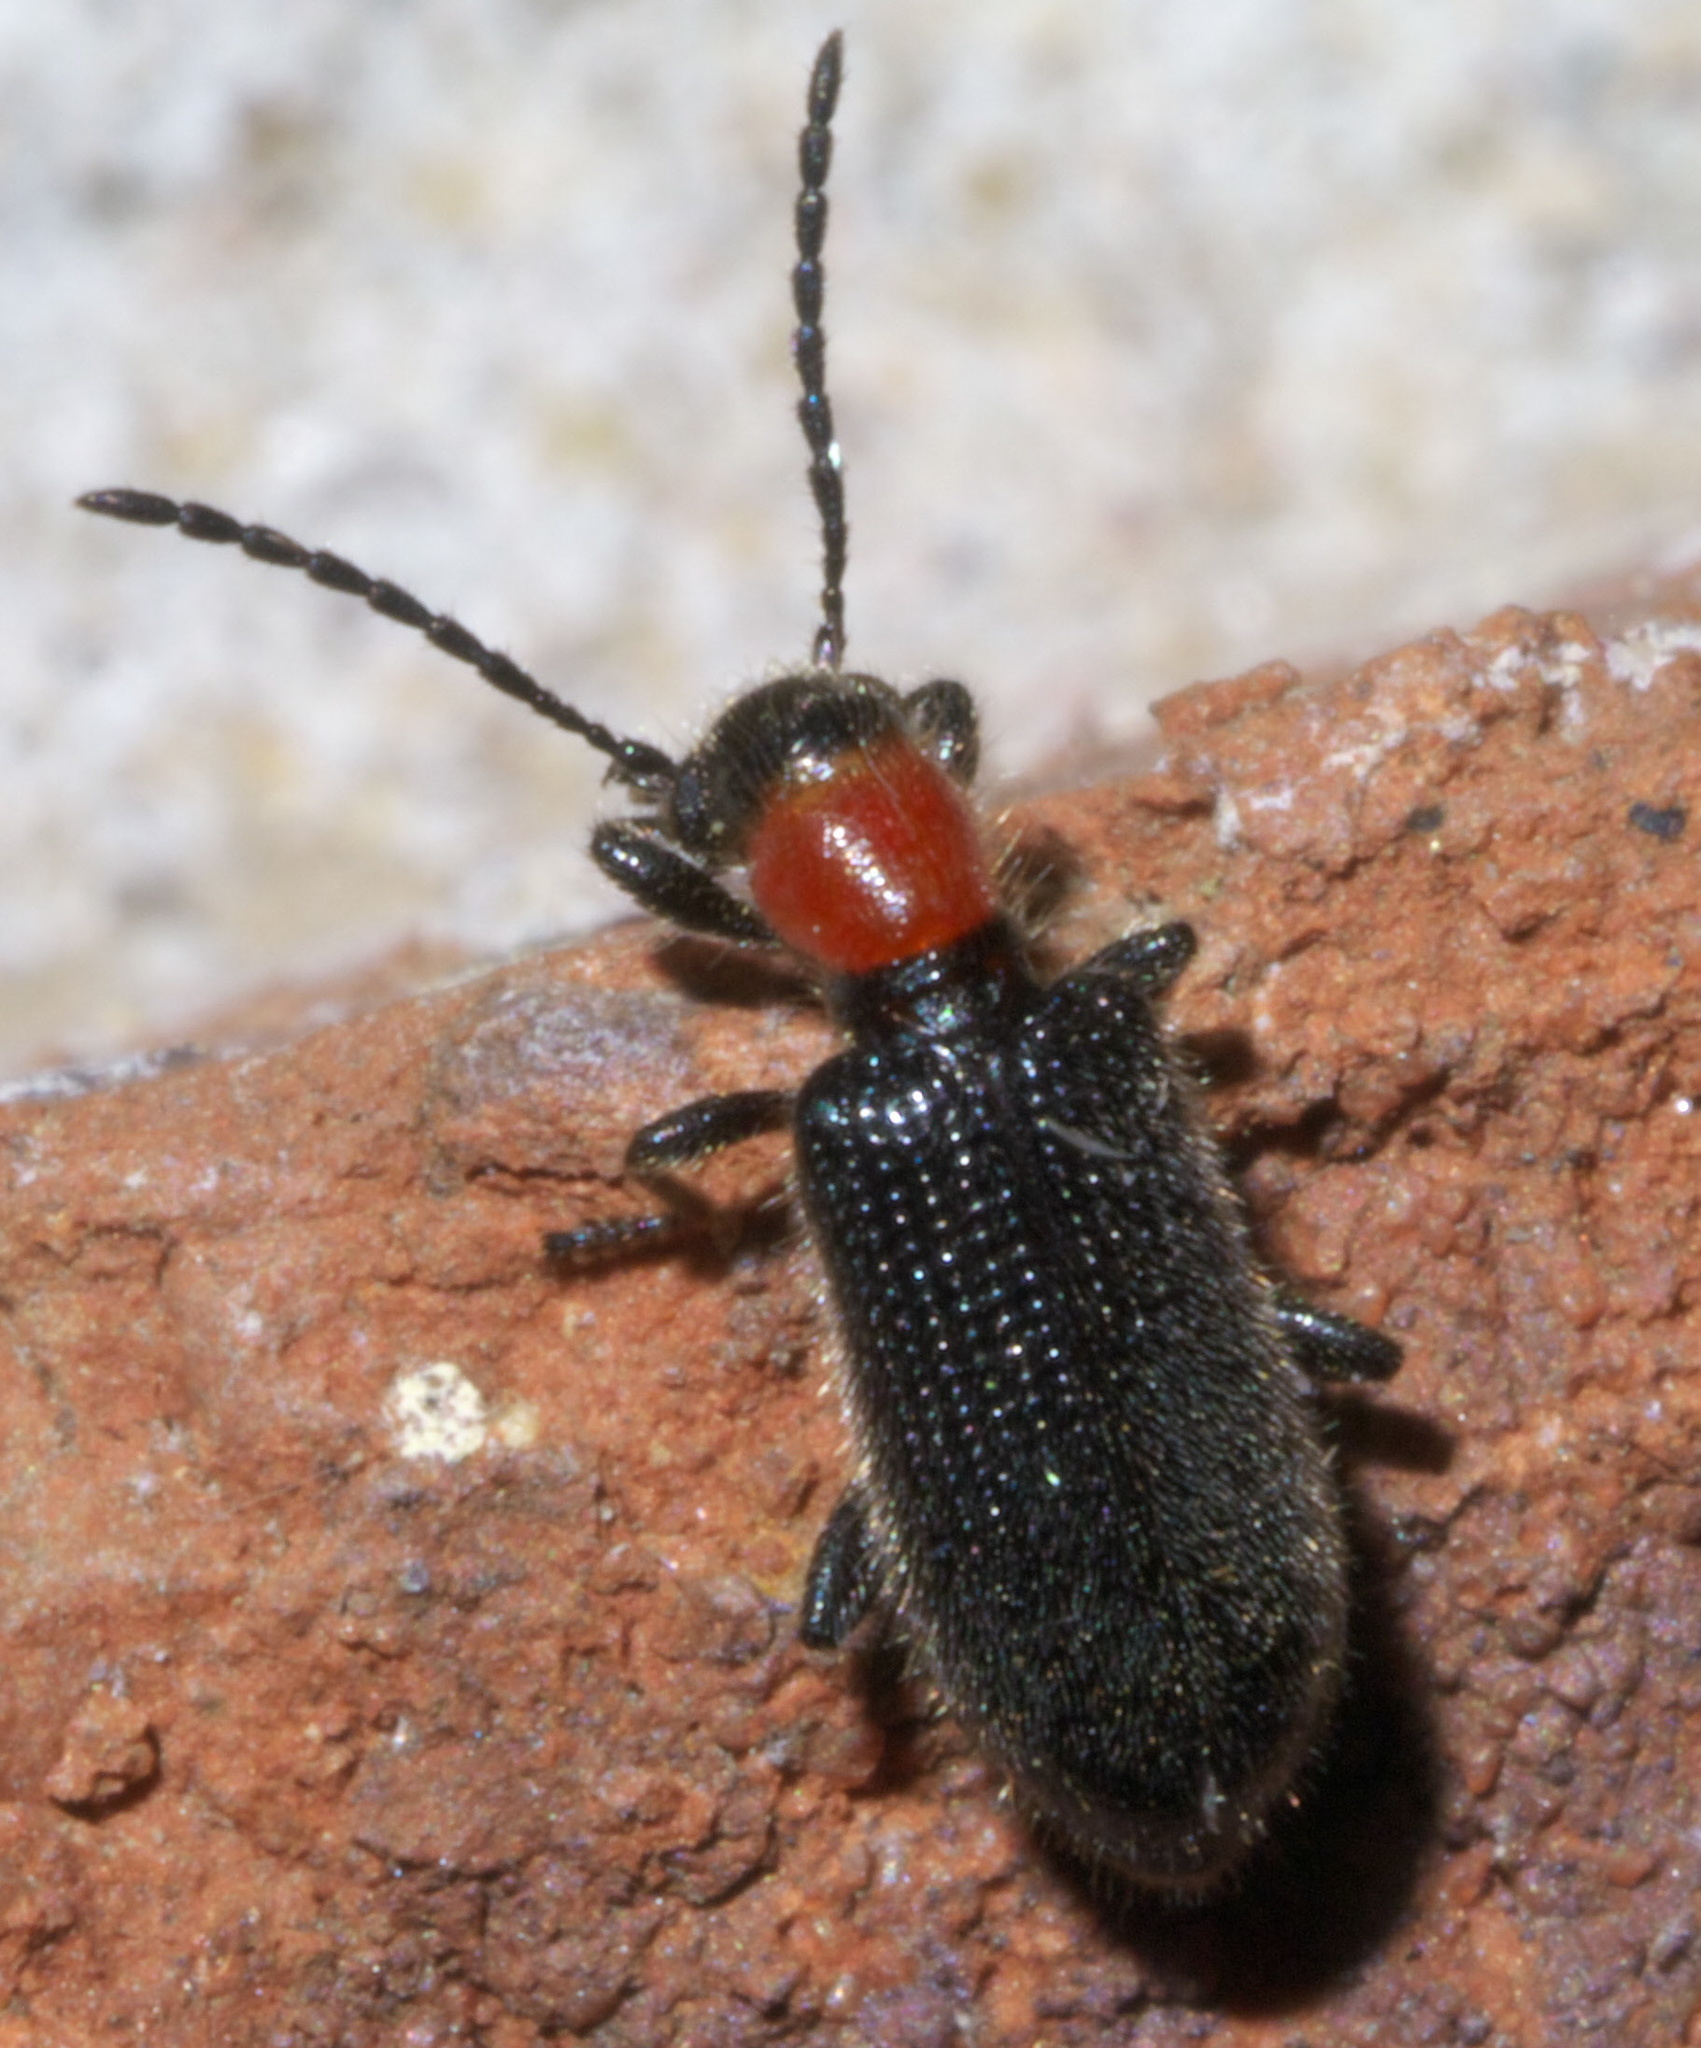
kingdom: Animalia
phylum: Arthropoda
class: Insecta
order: Coleoptera
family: Cleridae
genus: Cymatoderella
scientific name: Cymatoderella collaris
